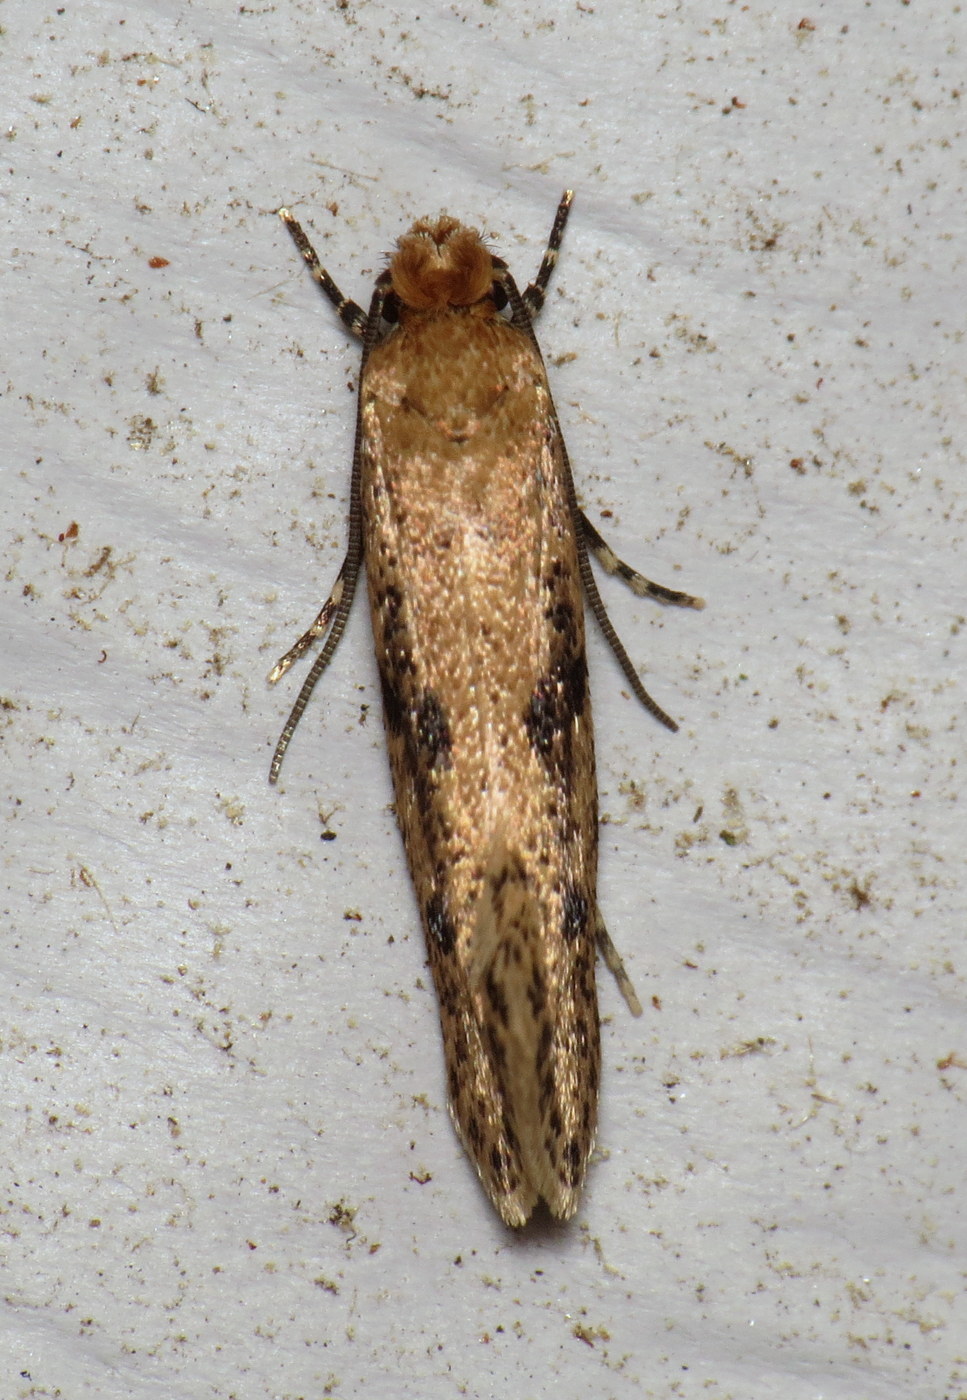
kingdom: Animalia
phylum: Arthropoda
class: Insecta
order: Lepidoptera
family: Tineidae
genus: Niditinea
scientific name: Niditinea sabroskyi
